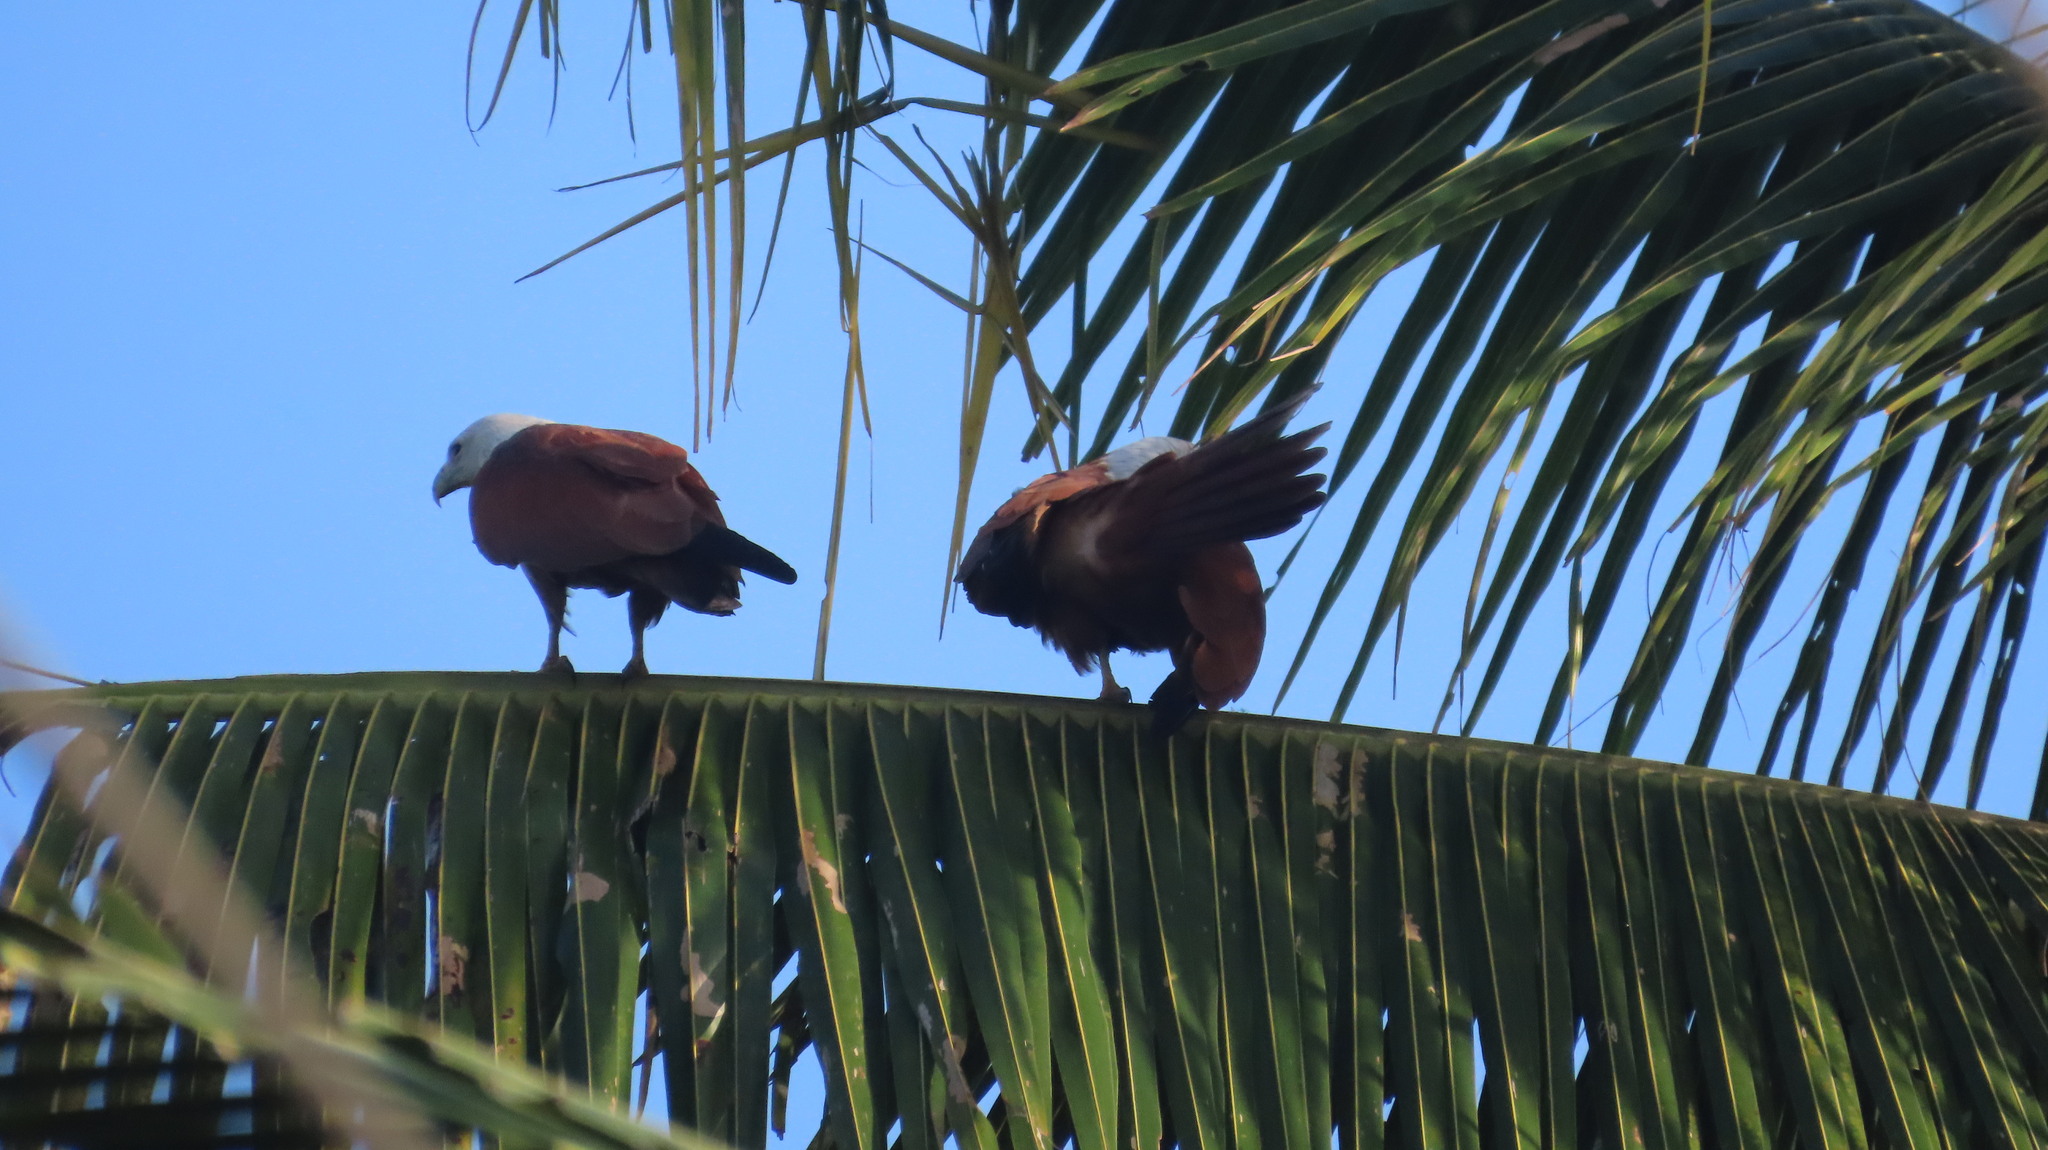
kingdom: Animalia
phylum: Chordata
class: Aves
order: Accipitriformes
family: Accipitridae
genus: Haliastur
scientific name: Haliastur indus
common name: Brahminy kite
